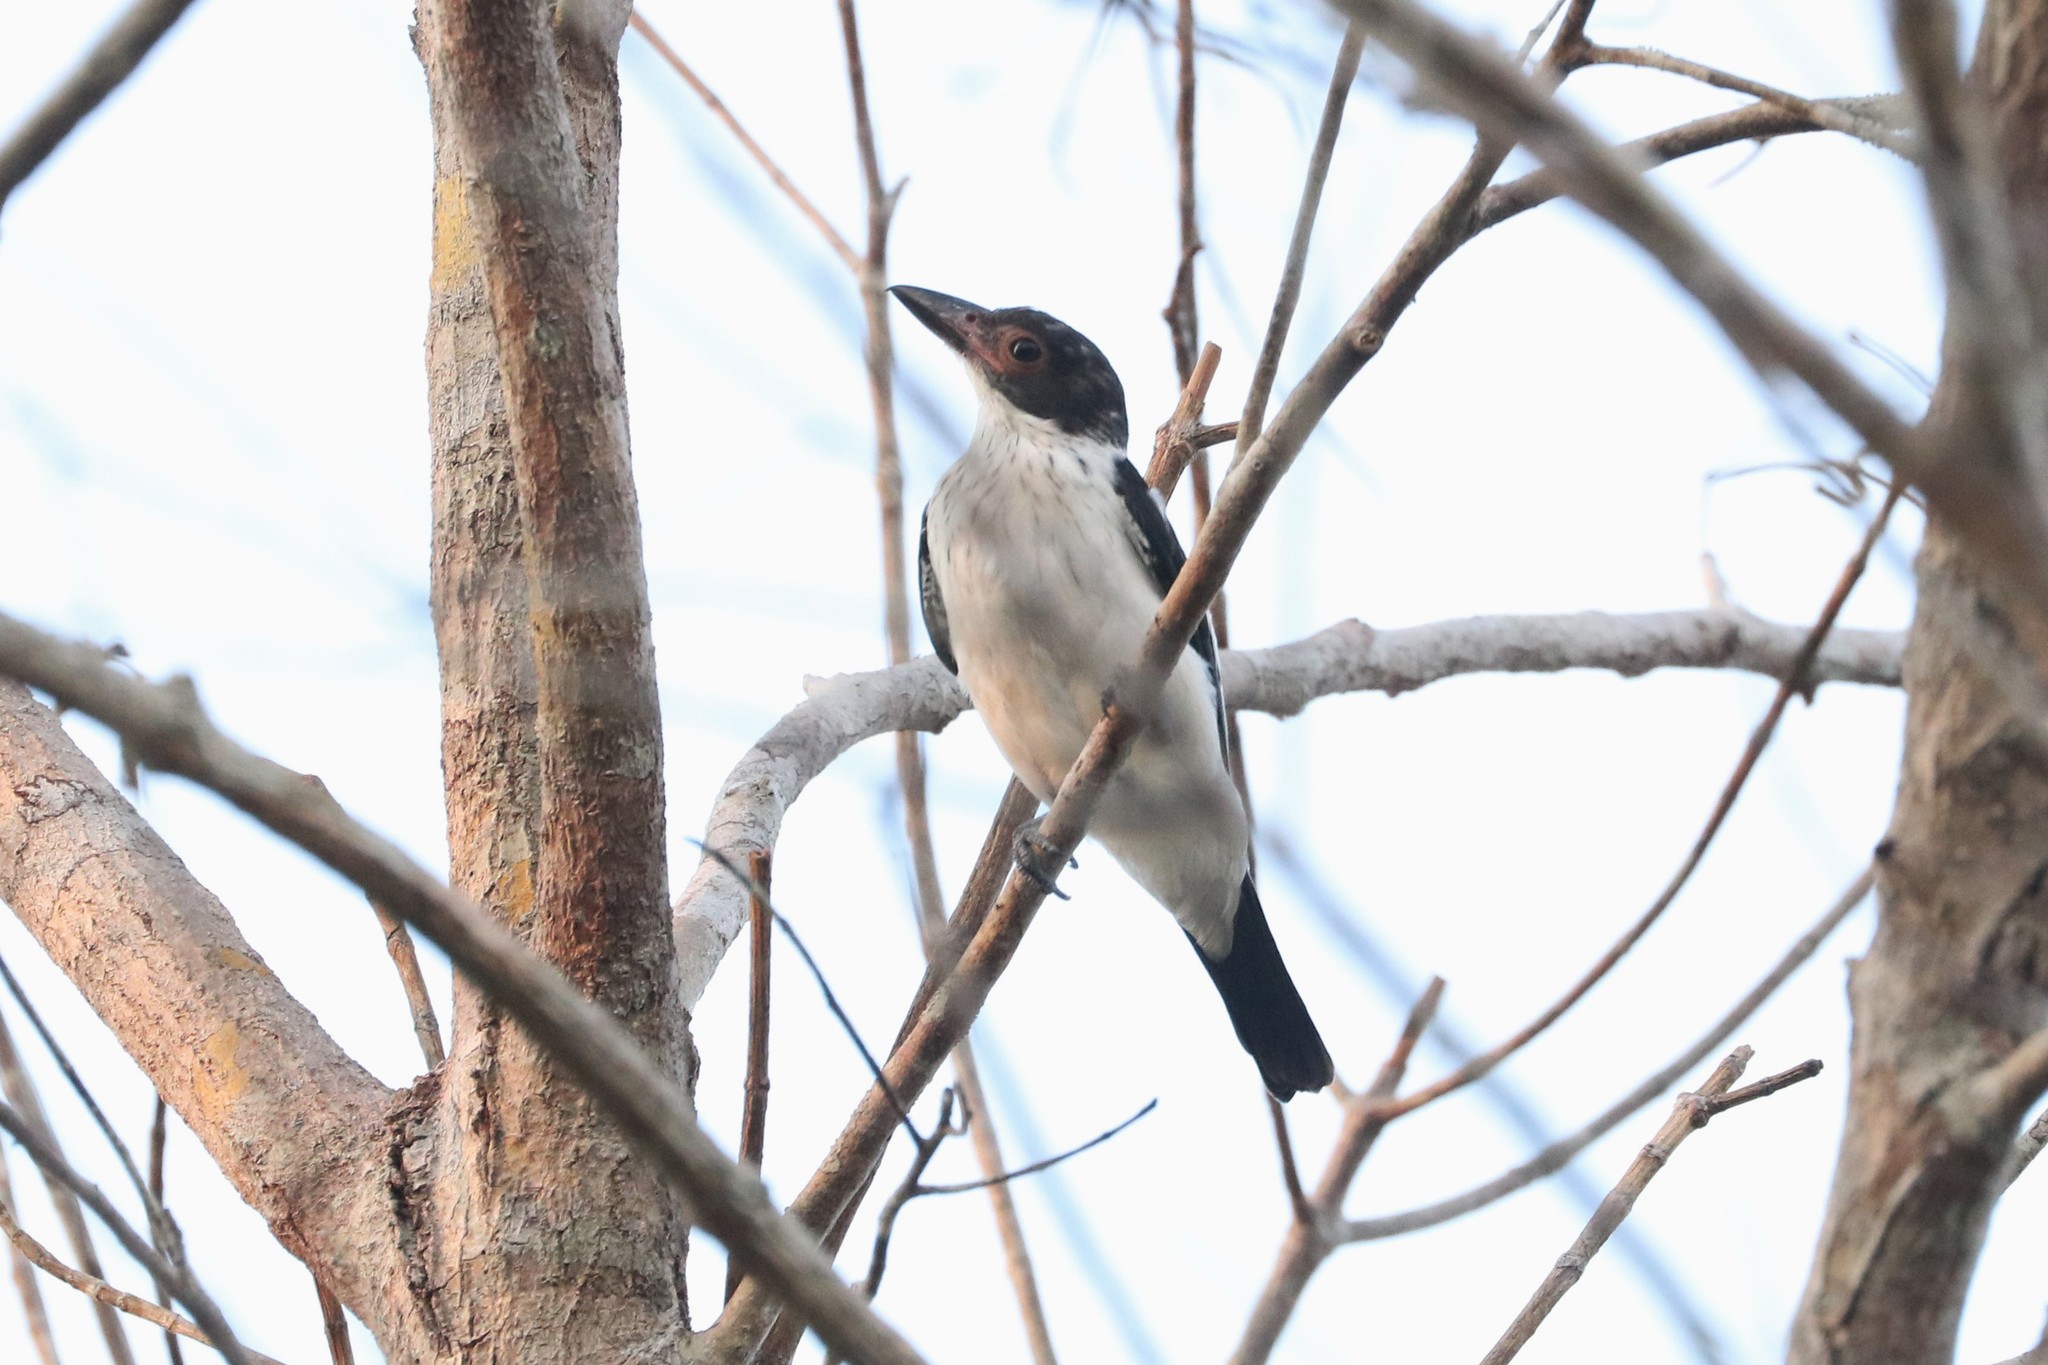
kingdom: Animalia
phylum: Chordata
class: Aves
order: Passeriformes
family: Cotingidae
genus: Tityra
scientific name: Tityra cayana
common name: Black-tailed tityra
